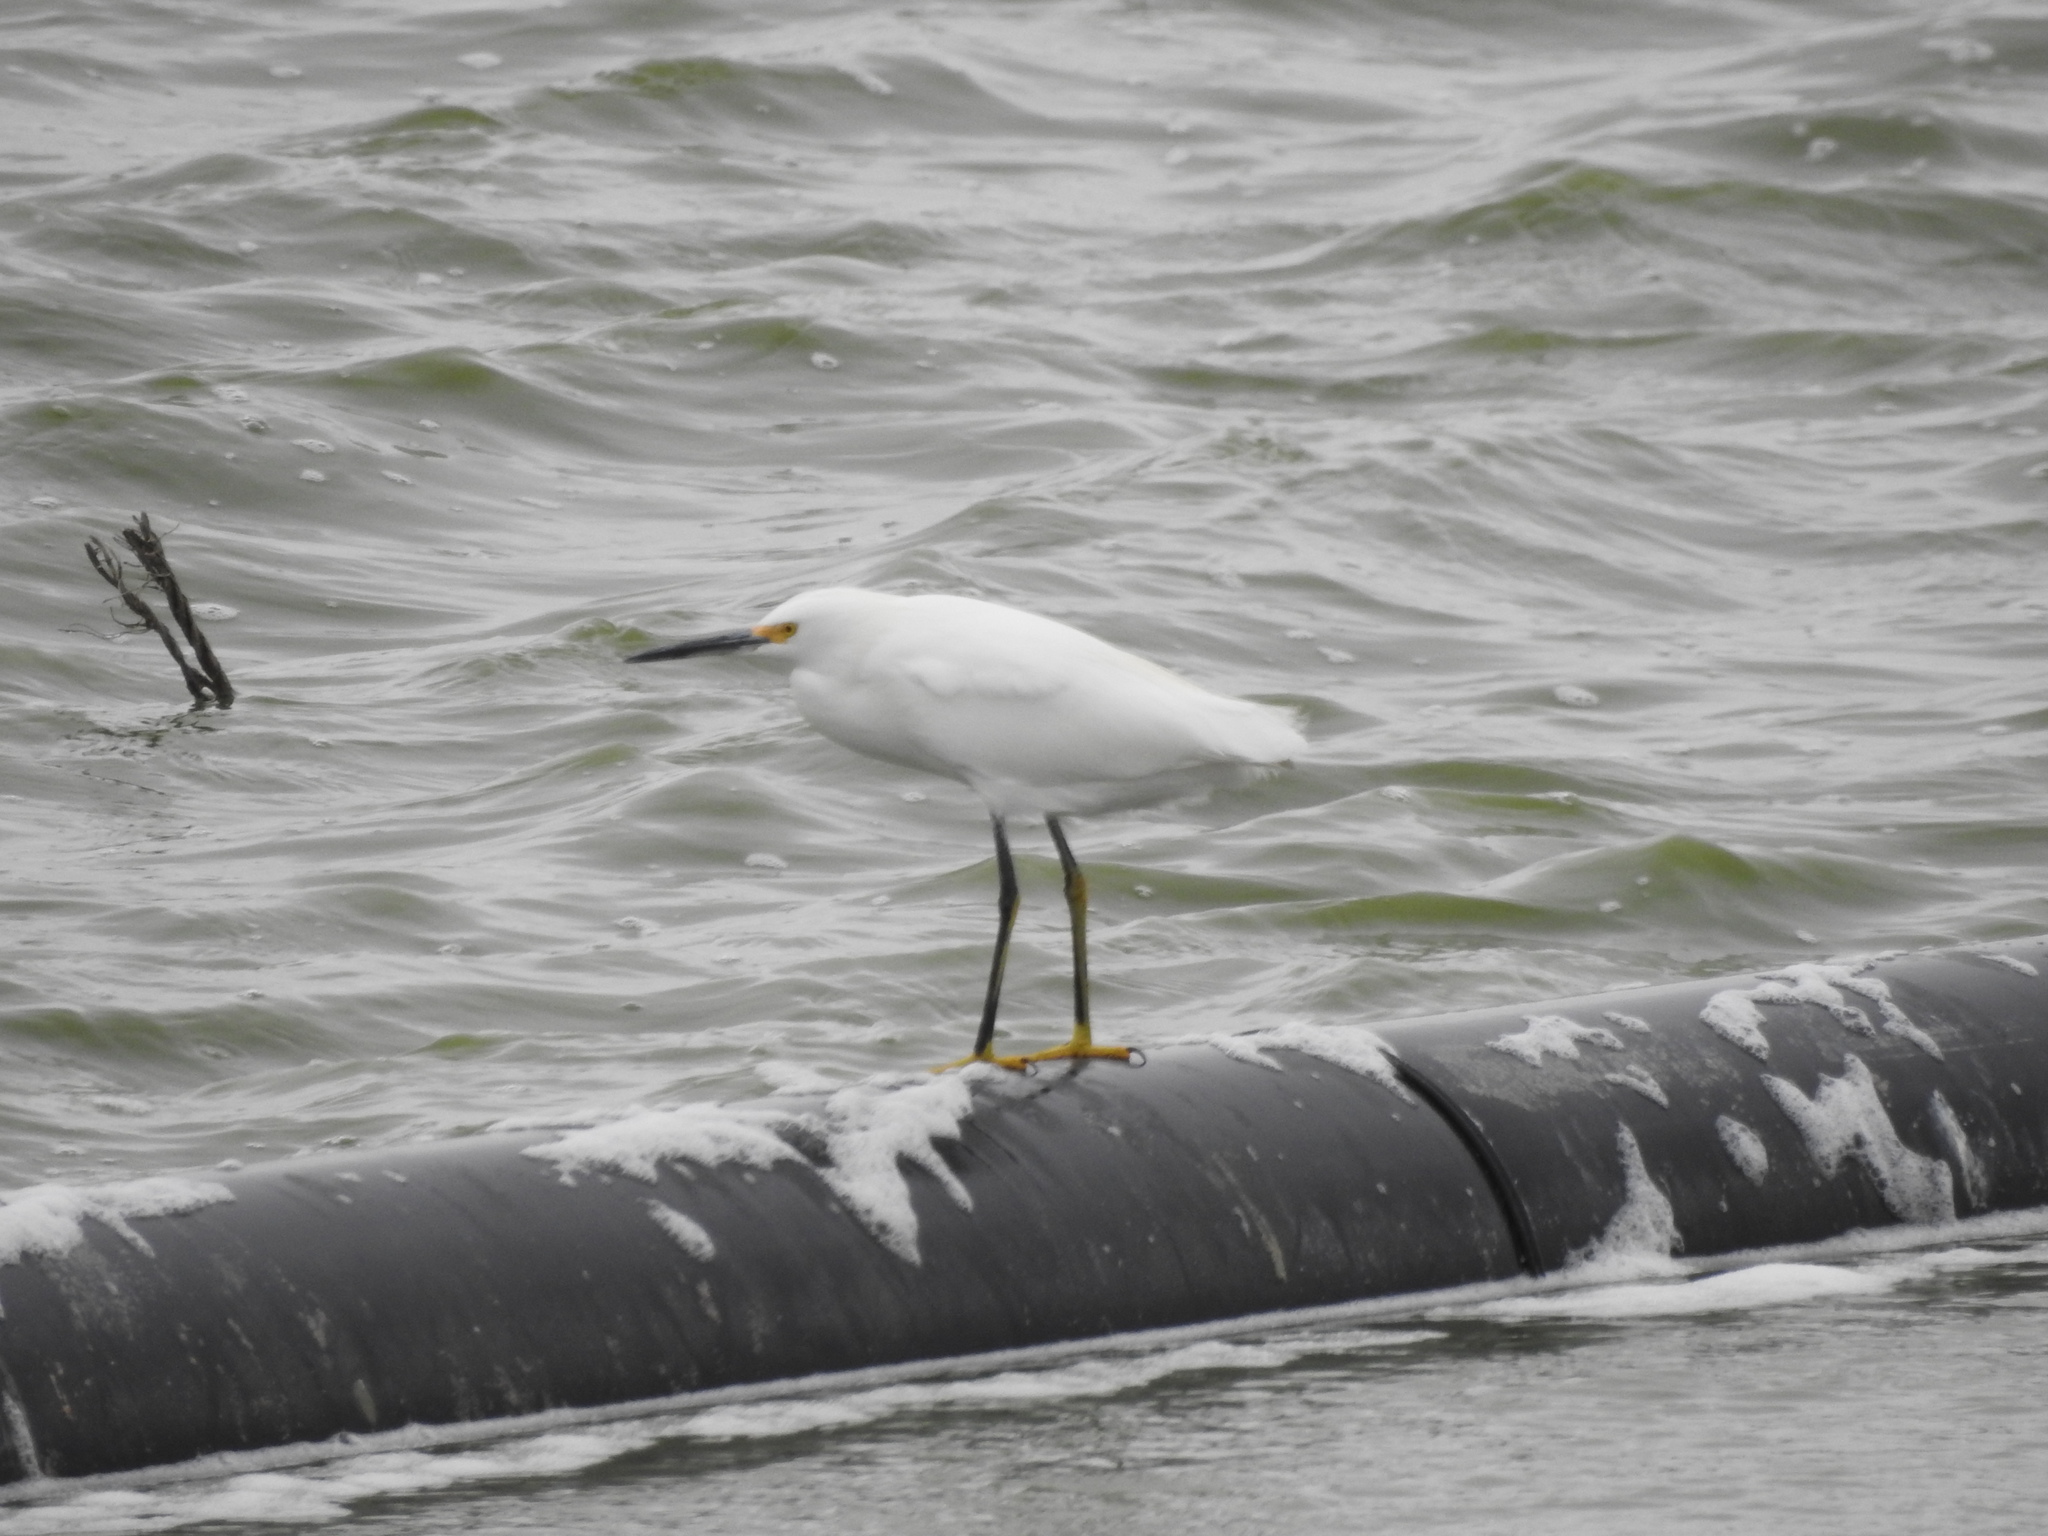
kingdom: Animalia
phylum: Chordata
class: Aves
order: Pelecaniformes
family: Ardeidae
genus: Egretta
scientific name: Egretta thula
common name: Snowy egret
